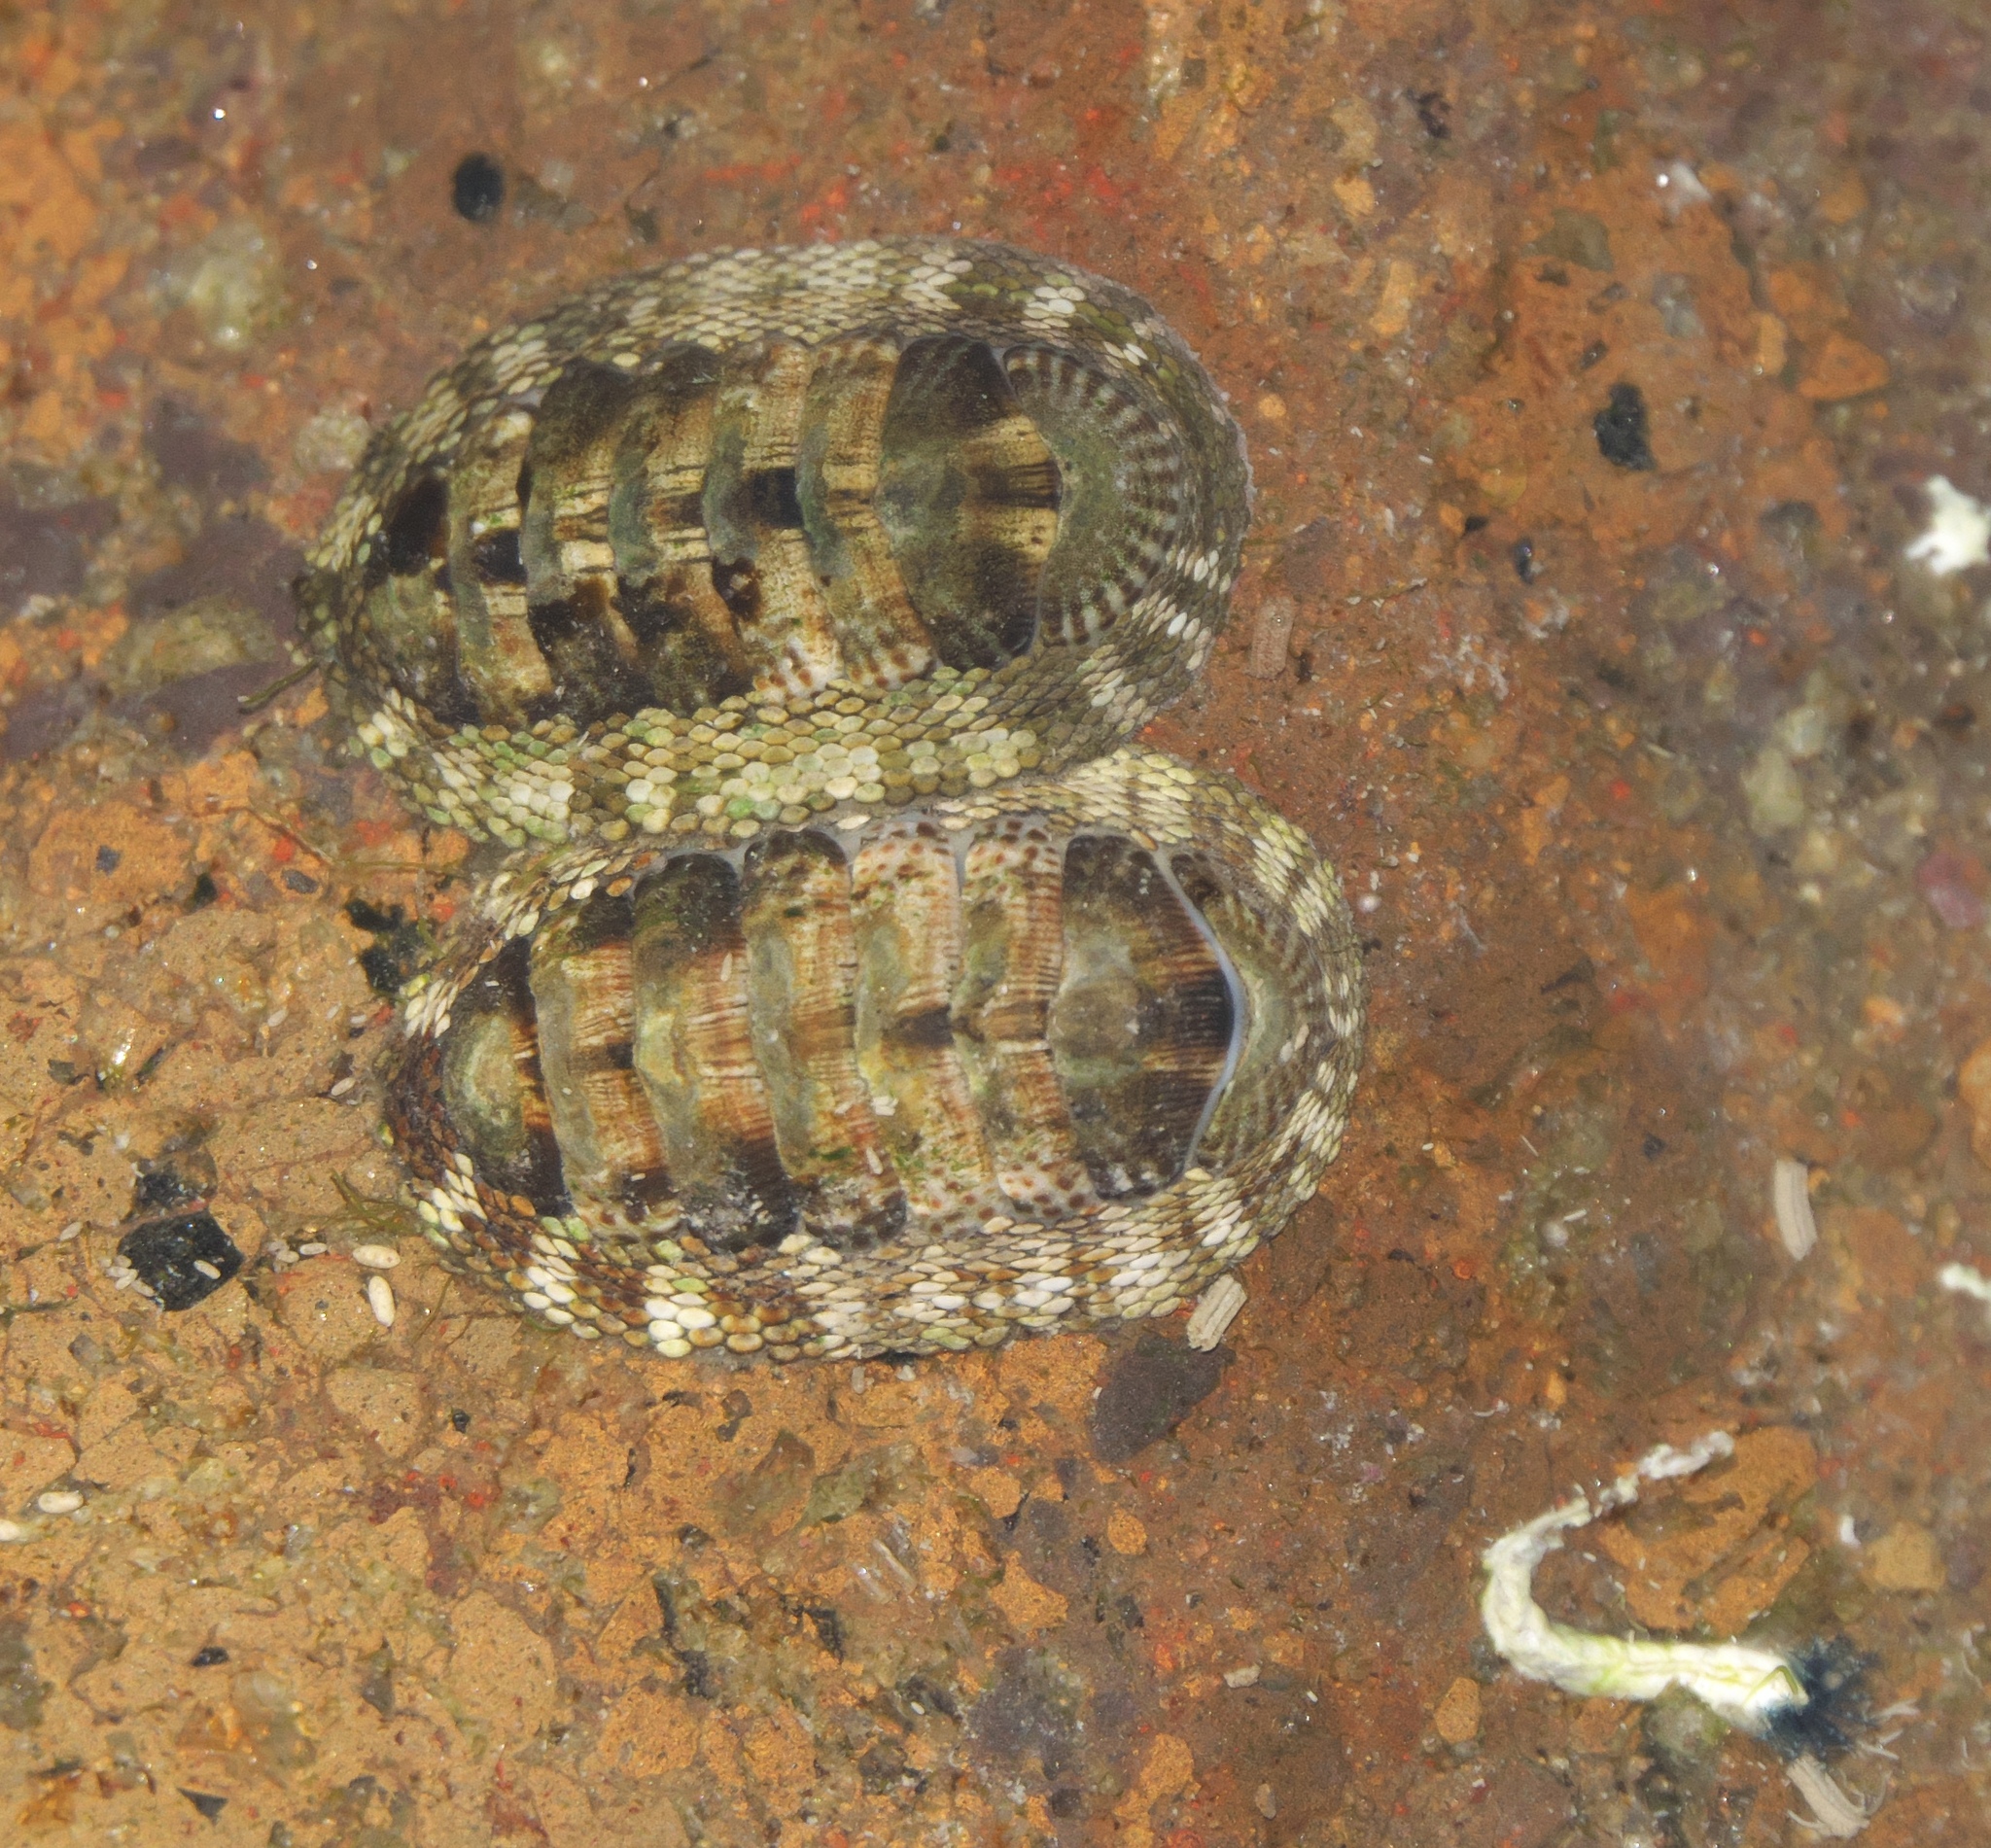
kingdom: Animalia
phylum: Mollusca
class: Polyplacophora
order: Chitonida
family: Chitonidae
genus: Sypharochiton
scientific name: Sypharochiton pelliserpentis
